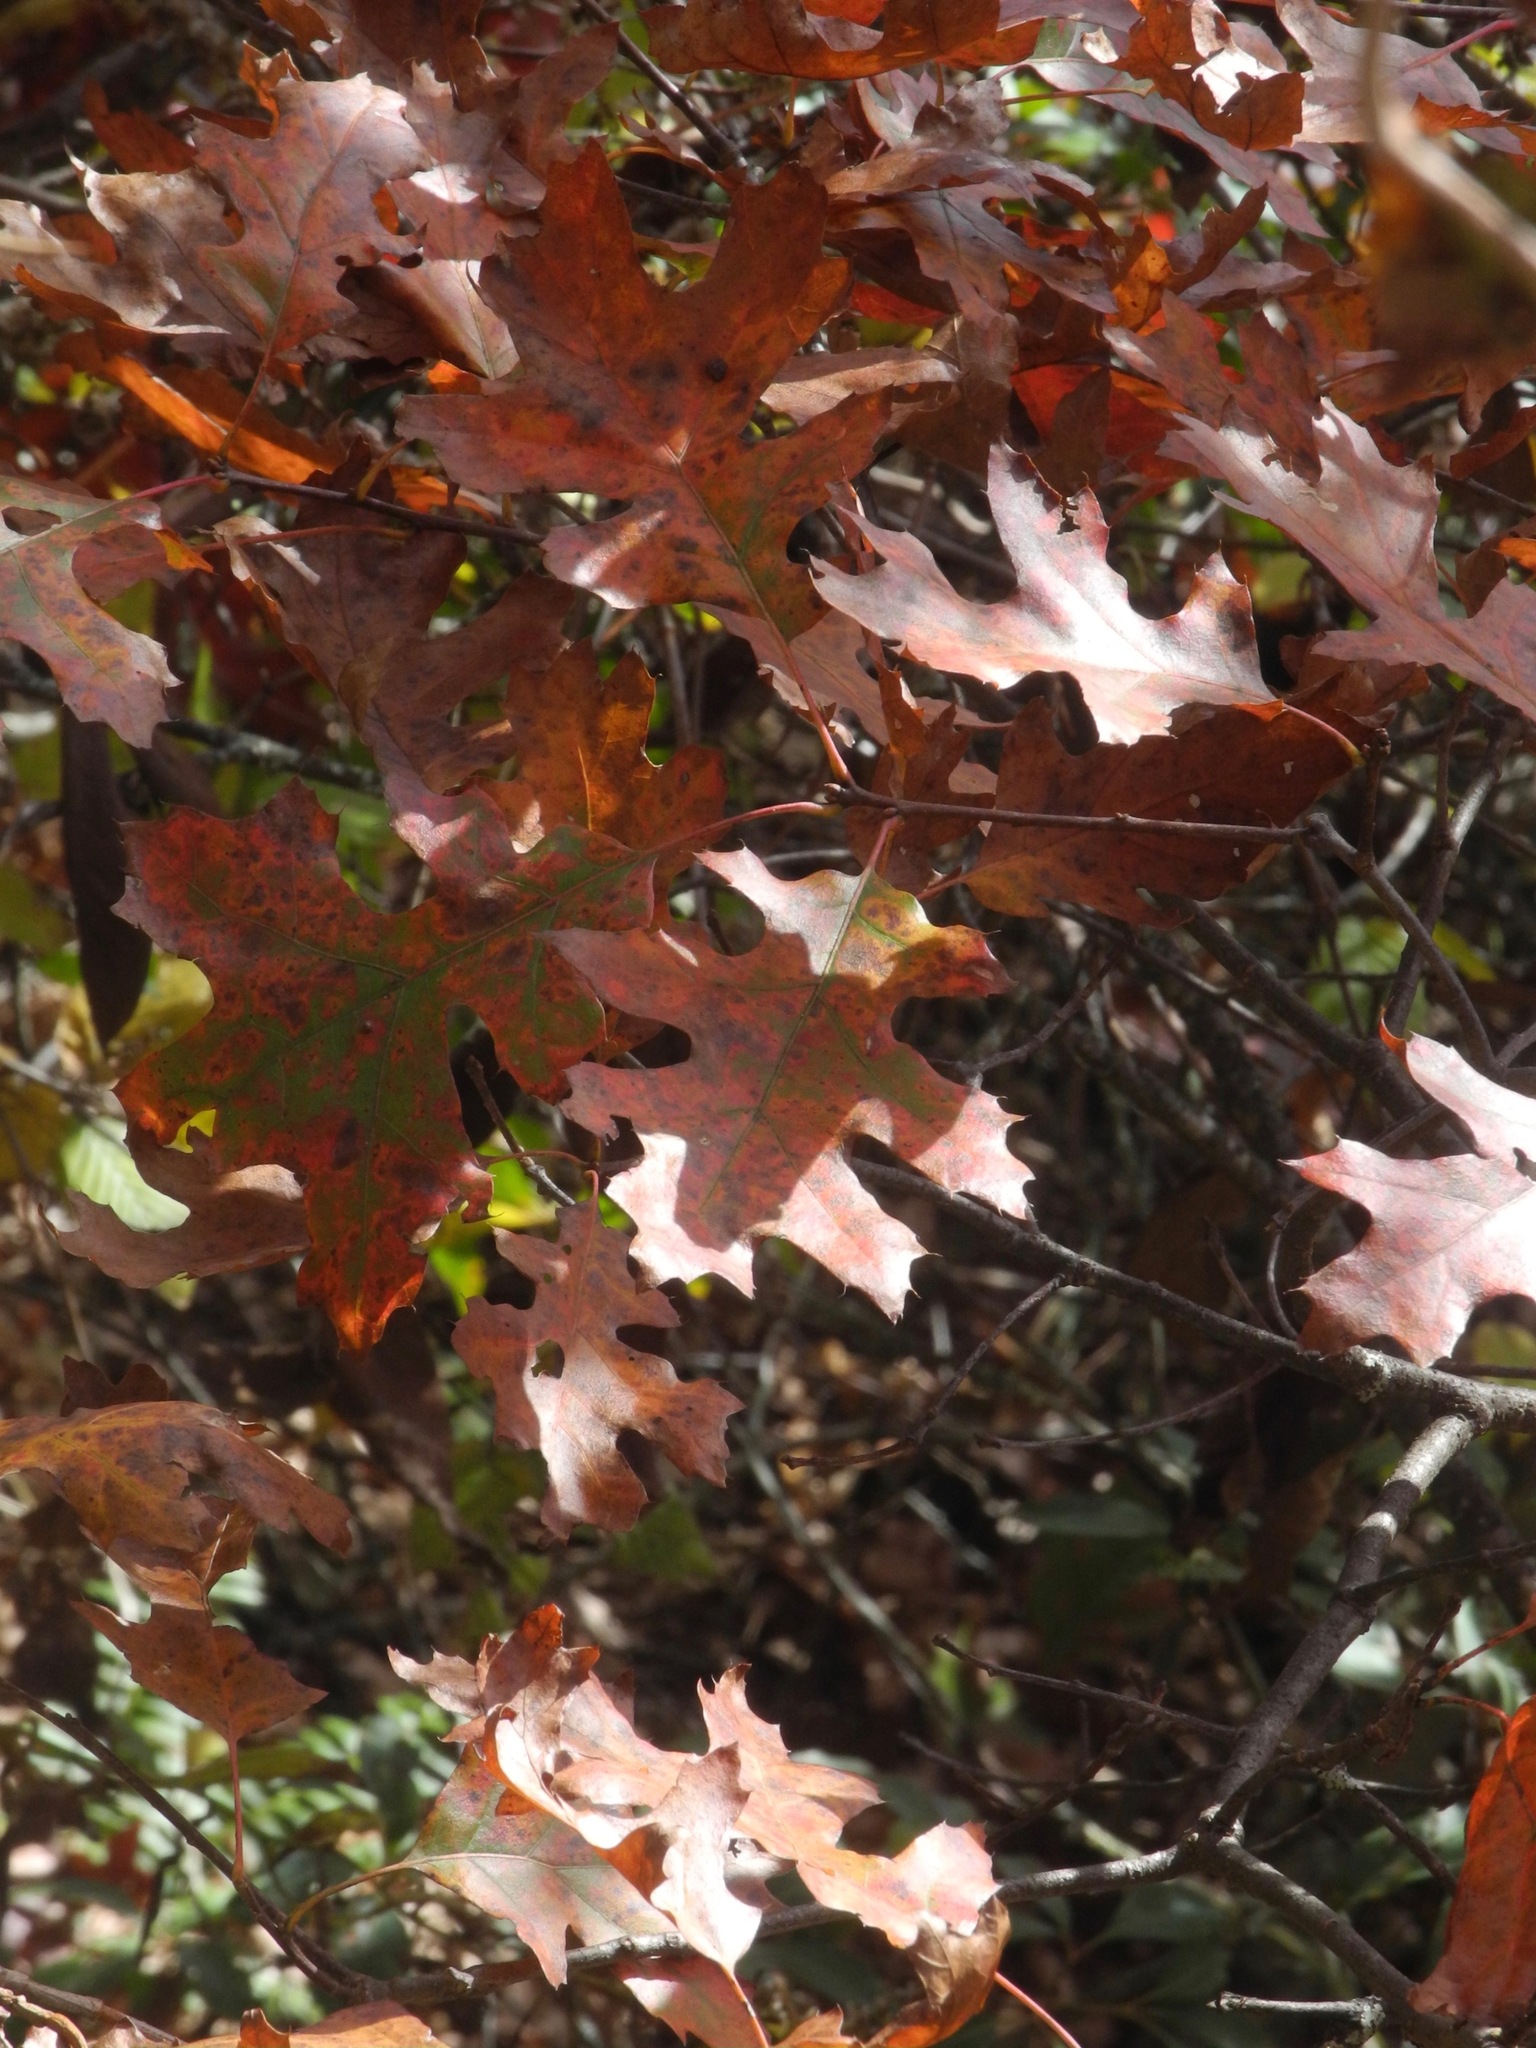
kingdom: Plantae
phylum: Tracheophyta
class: Magnoliopsida
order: Fagales
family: Fagaceae
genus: Quercus
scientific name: Quercus velutina
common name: Black oak
